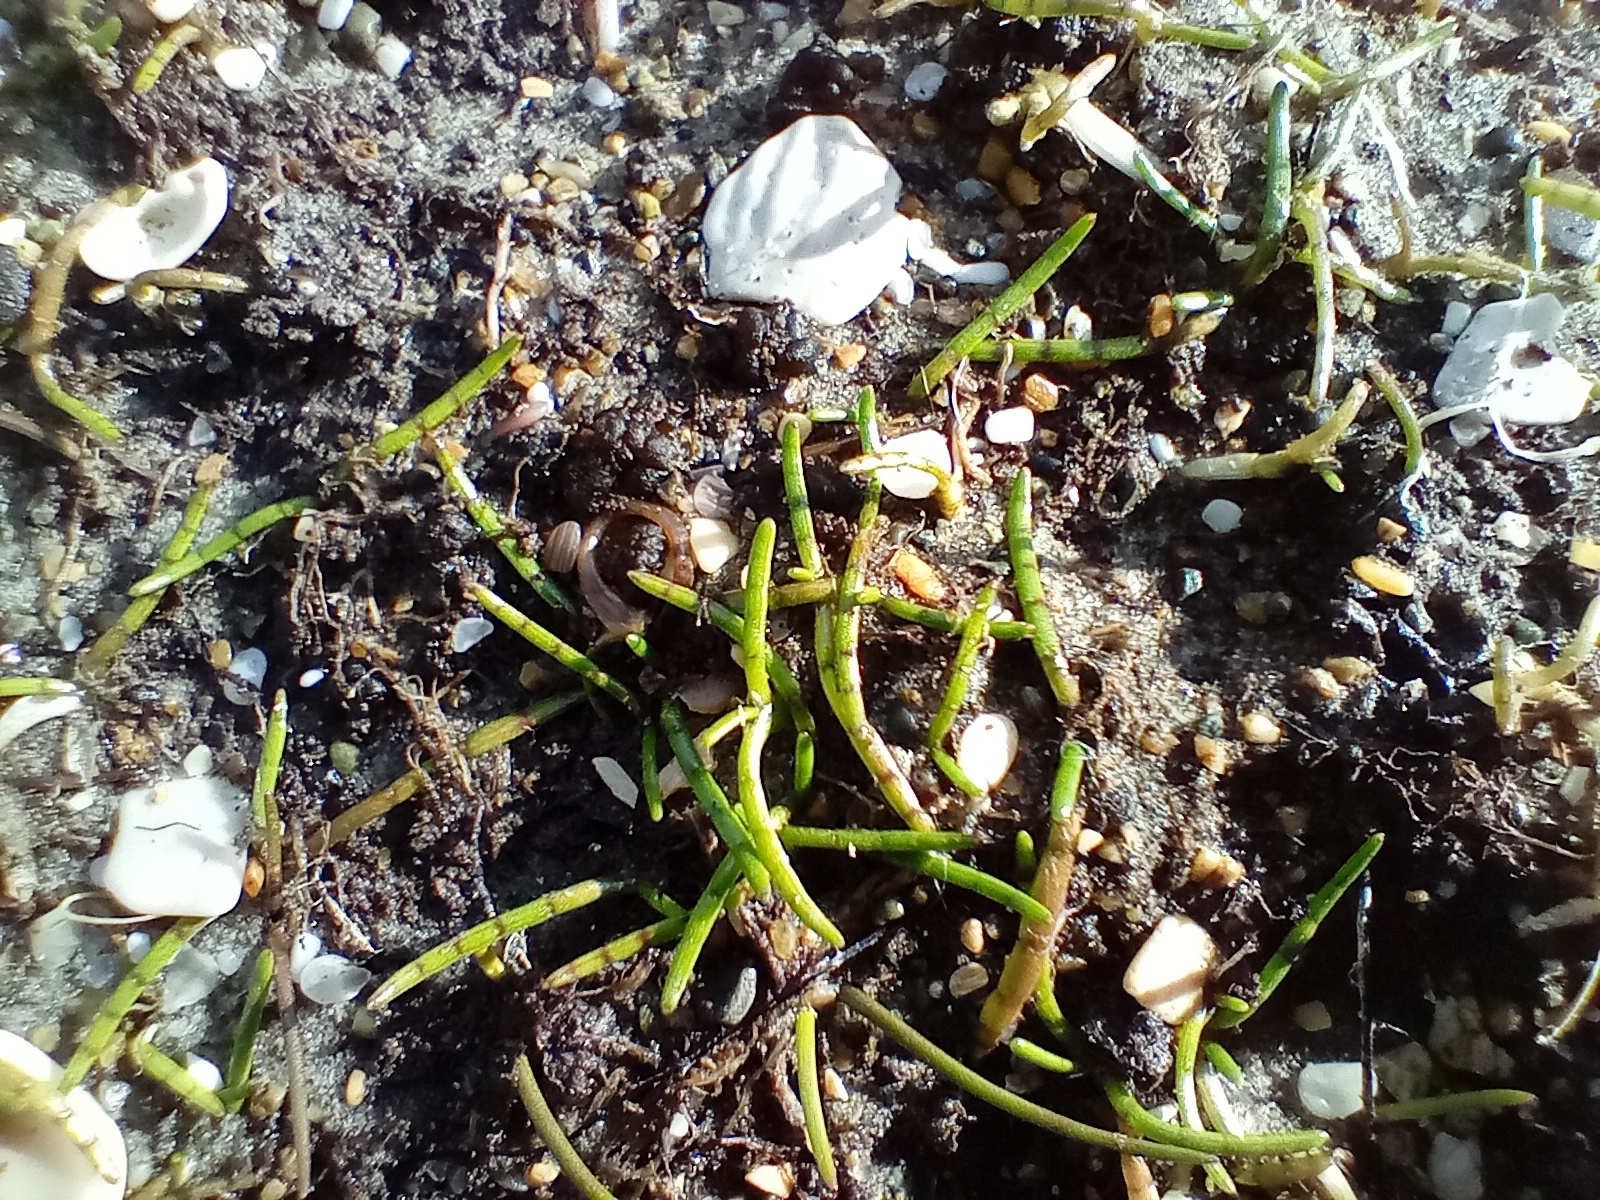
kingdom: Plantae
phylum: Tracheophyta
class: Magnoliopsida
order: Apiales
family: Apiaceae
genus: Lilaeopsis
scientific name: Lilaeopsis novae-zelandiae
